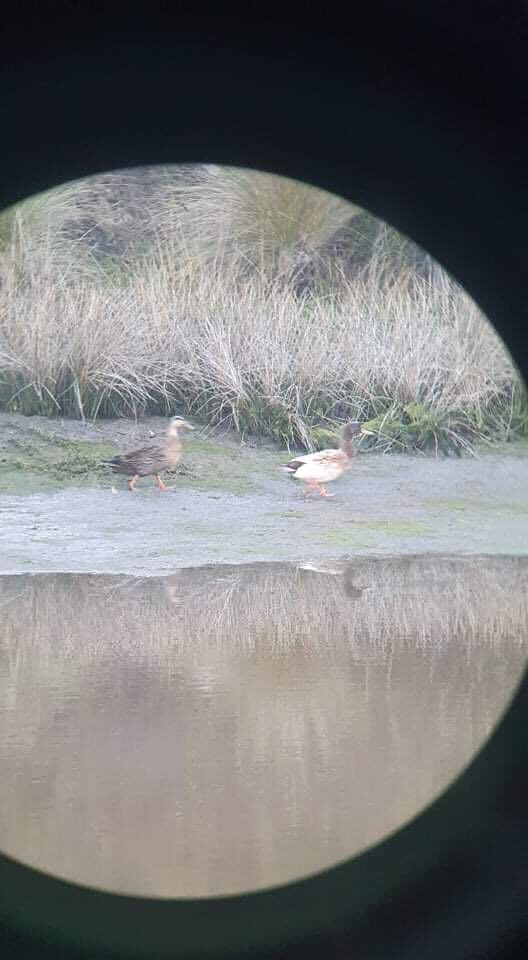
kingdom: Animalia
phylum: Chordata
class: Aves
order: Anseriformes
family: Anatidae
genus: Anas
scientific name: Anas
